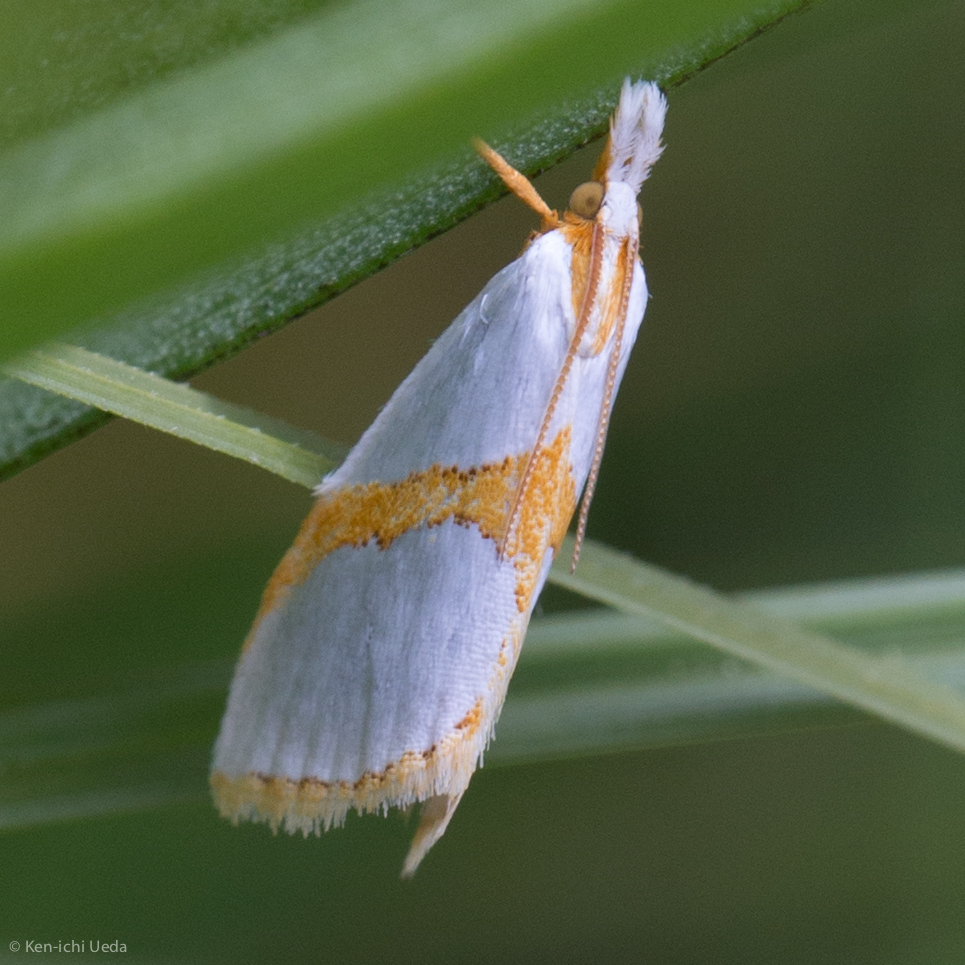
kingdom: Animalia
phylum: Arthropoda
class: Insecta
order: Lepidoptera
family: Crambidae
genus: Argyria
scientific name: Argyria auratella
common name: Curve-lined argyria moth
